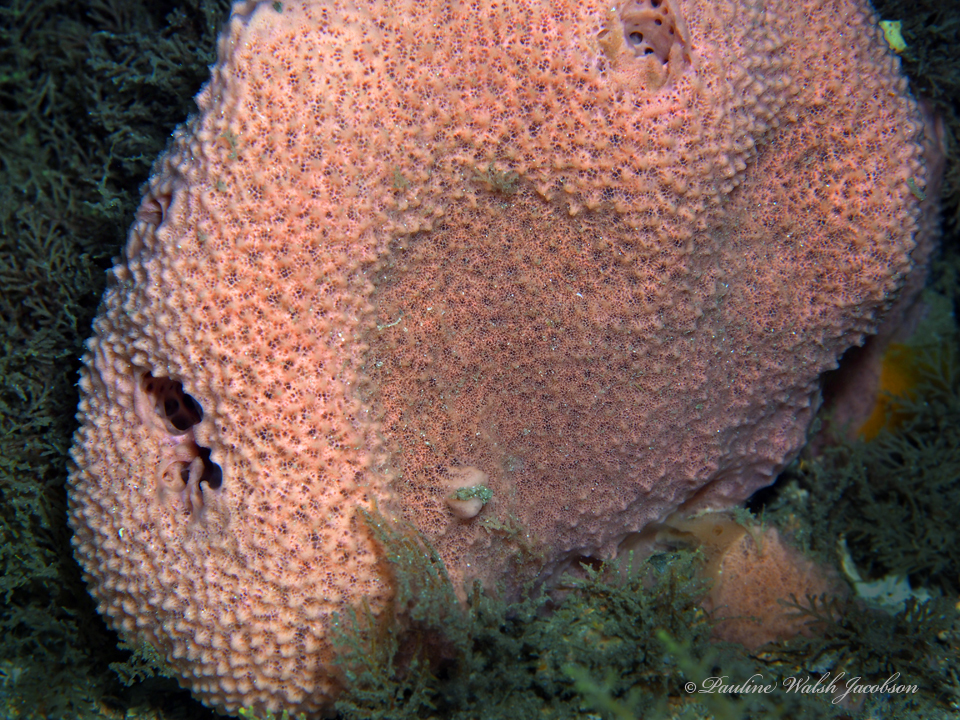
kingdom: Animalia
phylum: Porifera
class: Demospongiae
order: Haplosclerida
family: Niphatidae
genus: Amphimedon
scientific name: Amphimedon compressa
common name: Red sponge
